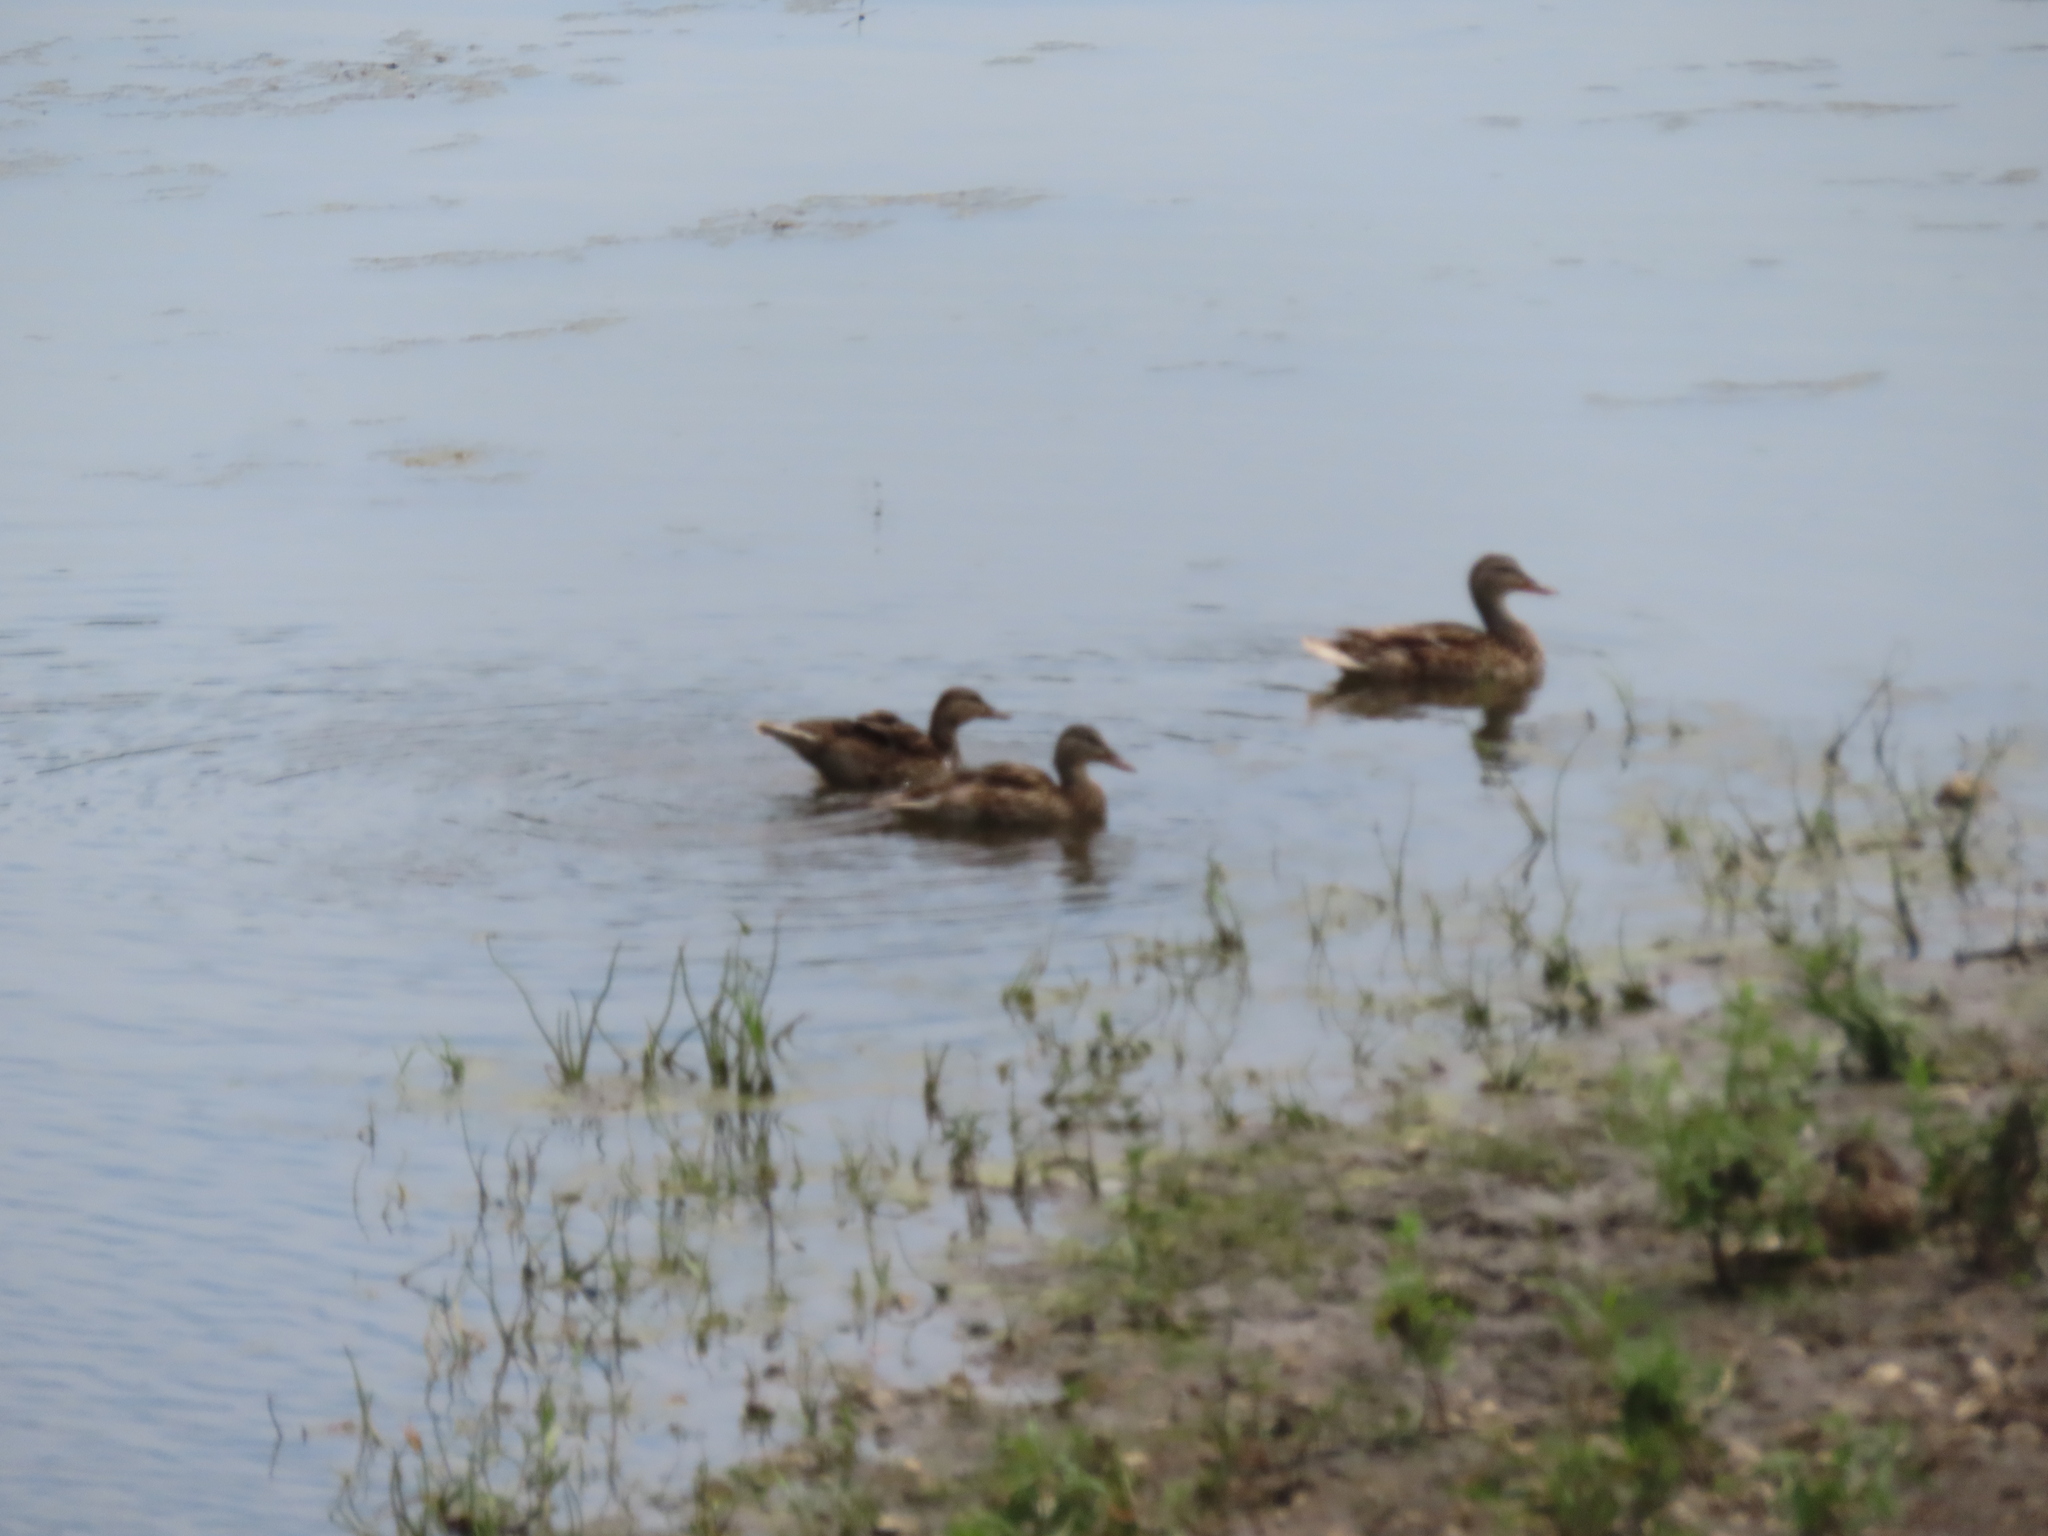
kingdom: Animalia
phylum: Chordata
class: Aves
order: Anseriformes
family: Anatidae
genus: Anas
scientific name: Anas platyrhynchos
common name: Mallard
